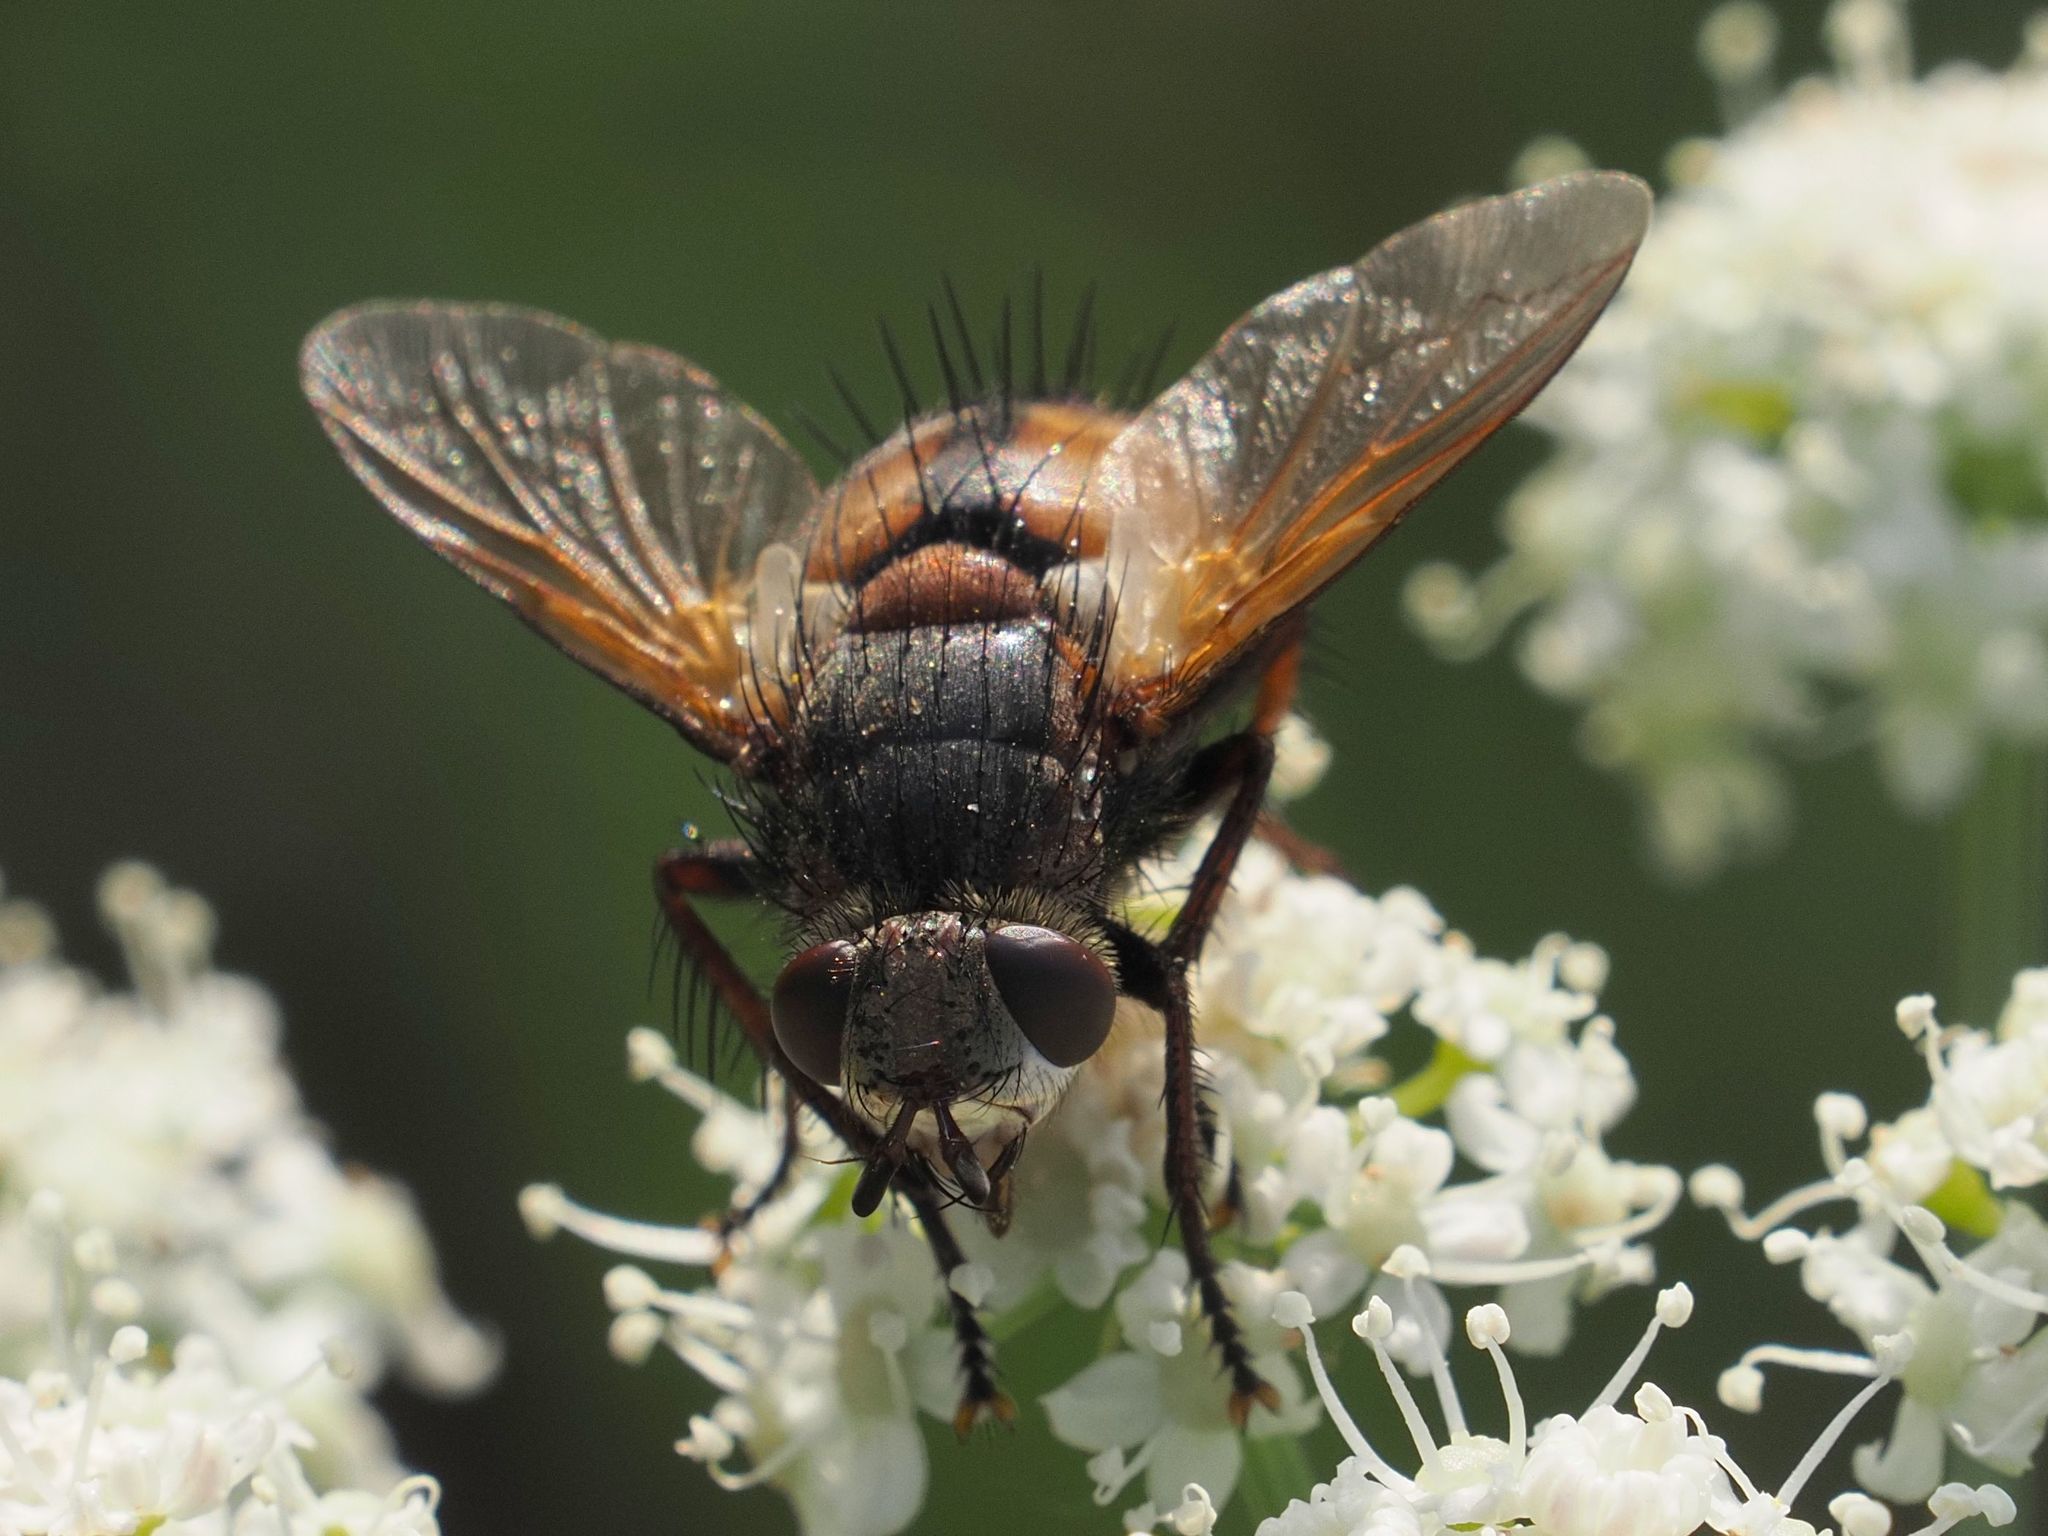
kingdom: Animalia
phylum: Arthropoda
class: Insecta
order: Diptera
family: Tachinidae
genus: Tachina
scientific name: Tachina fera
